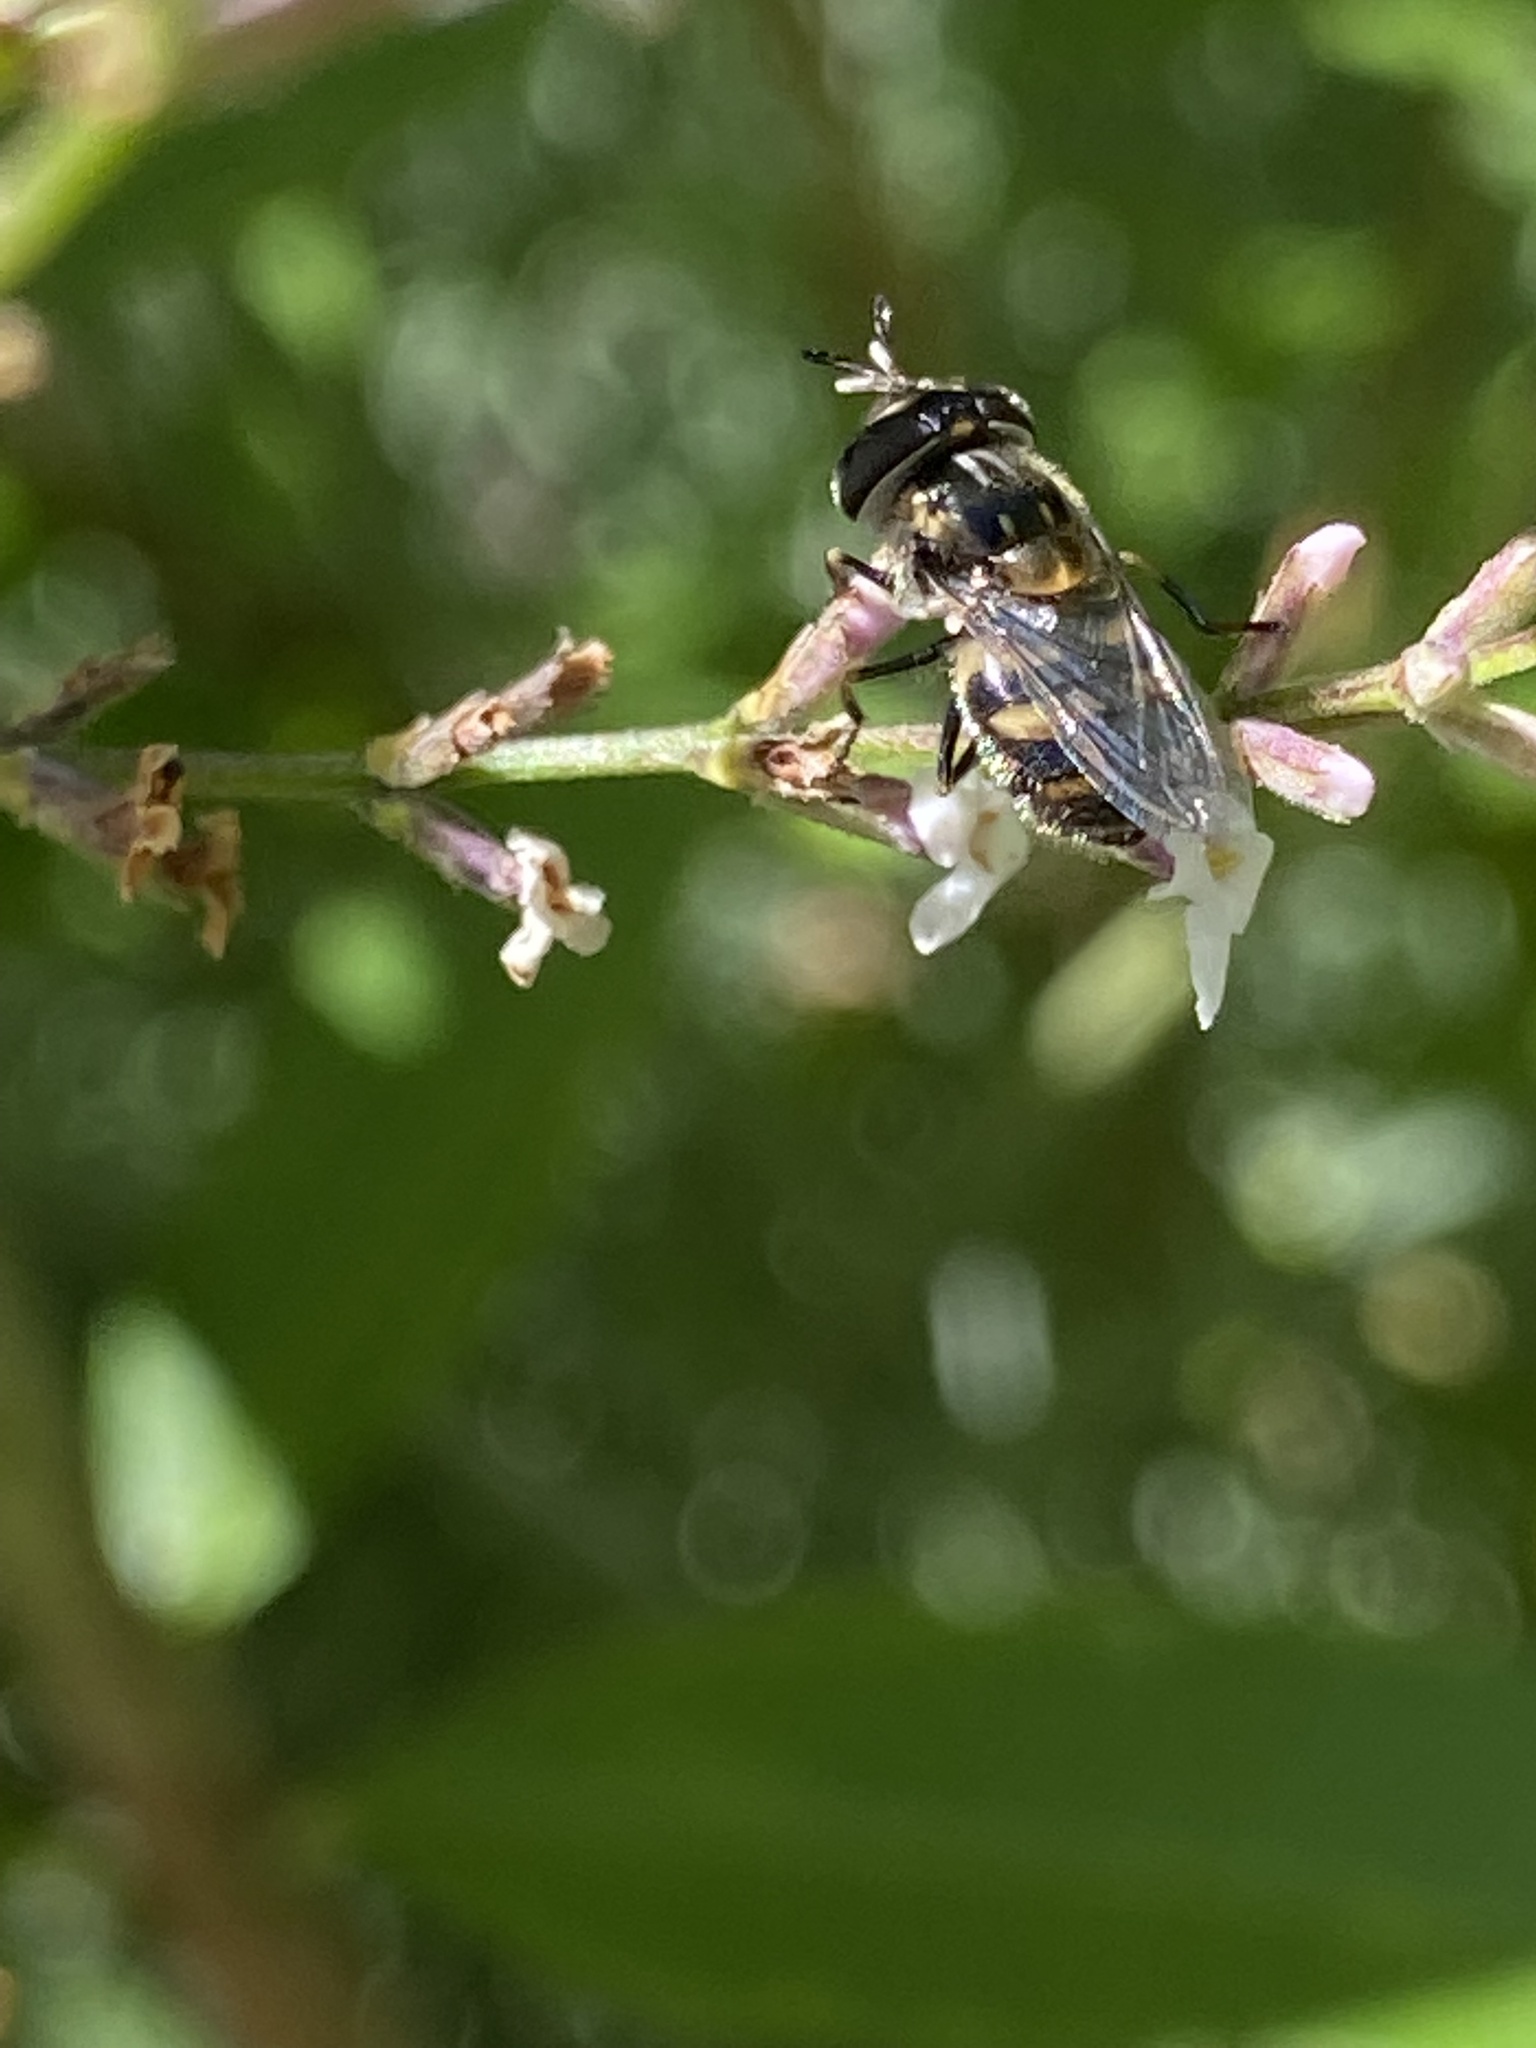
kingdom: Animalia
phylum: Arthropoda
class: Insecta
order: Diptera
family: Syrphidae
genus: Copestylum
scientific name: Copestylum marginatum
